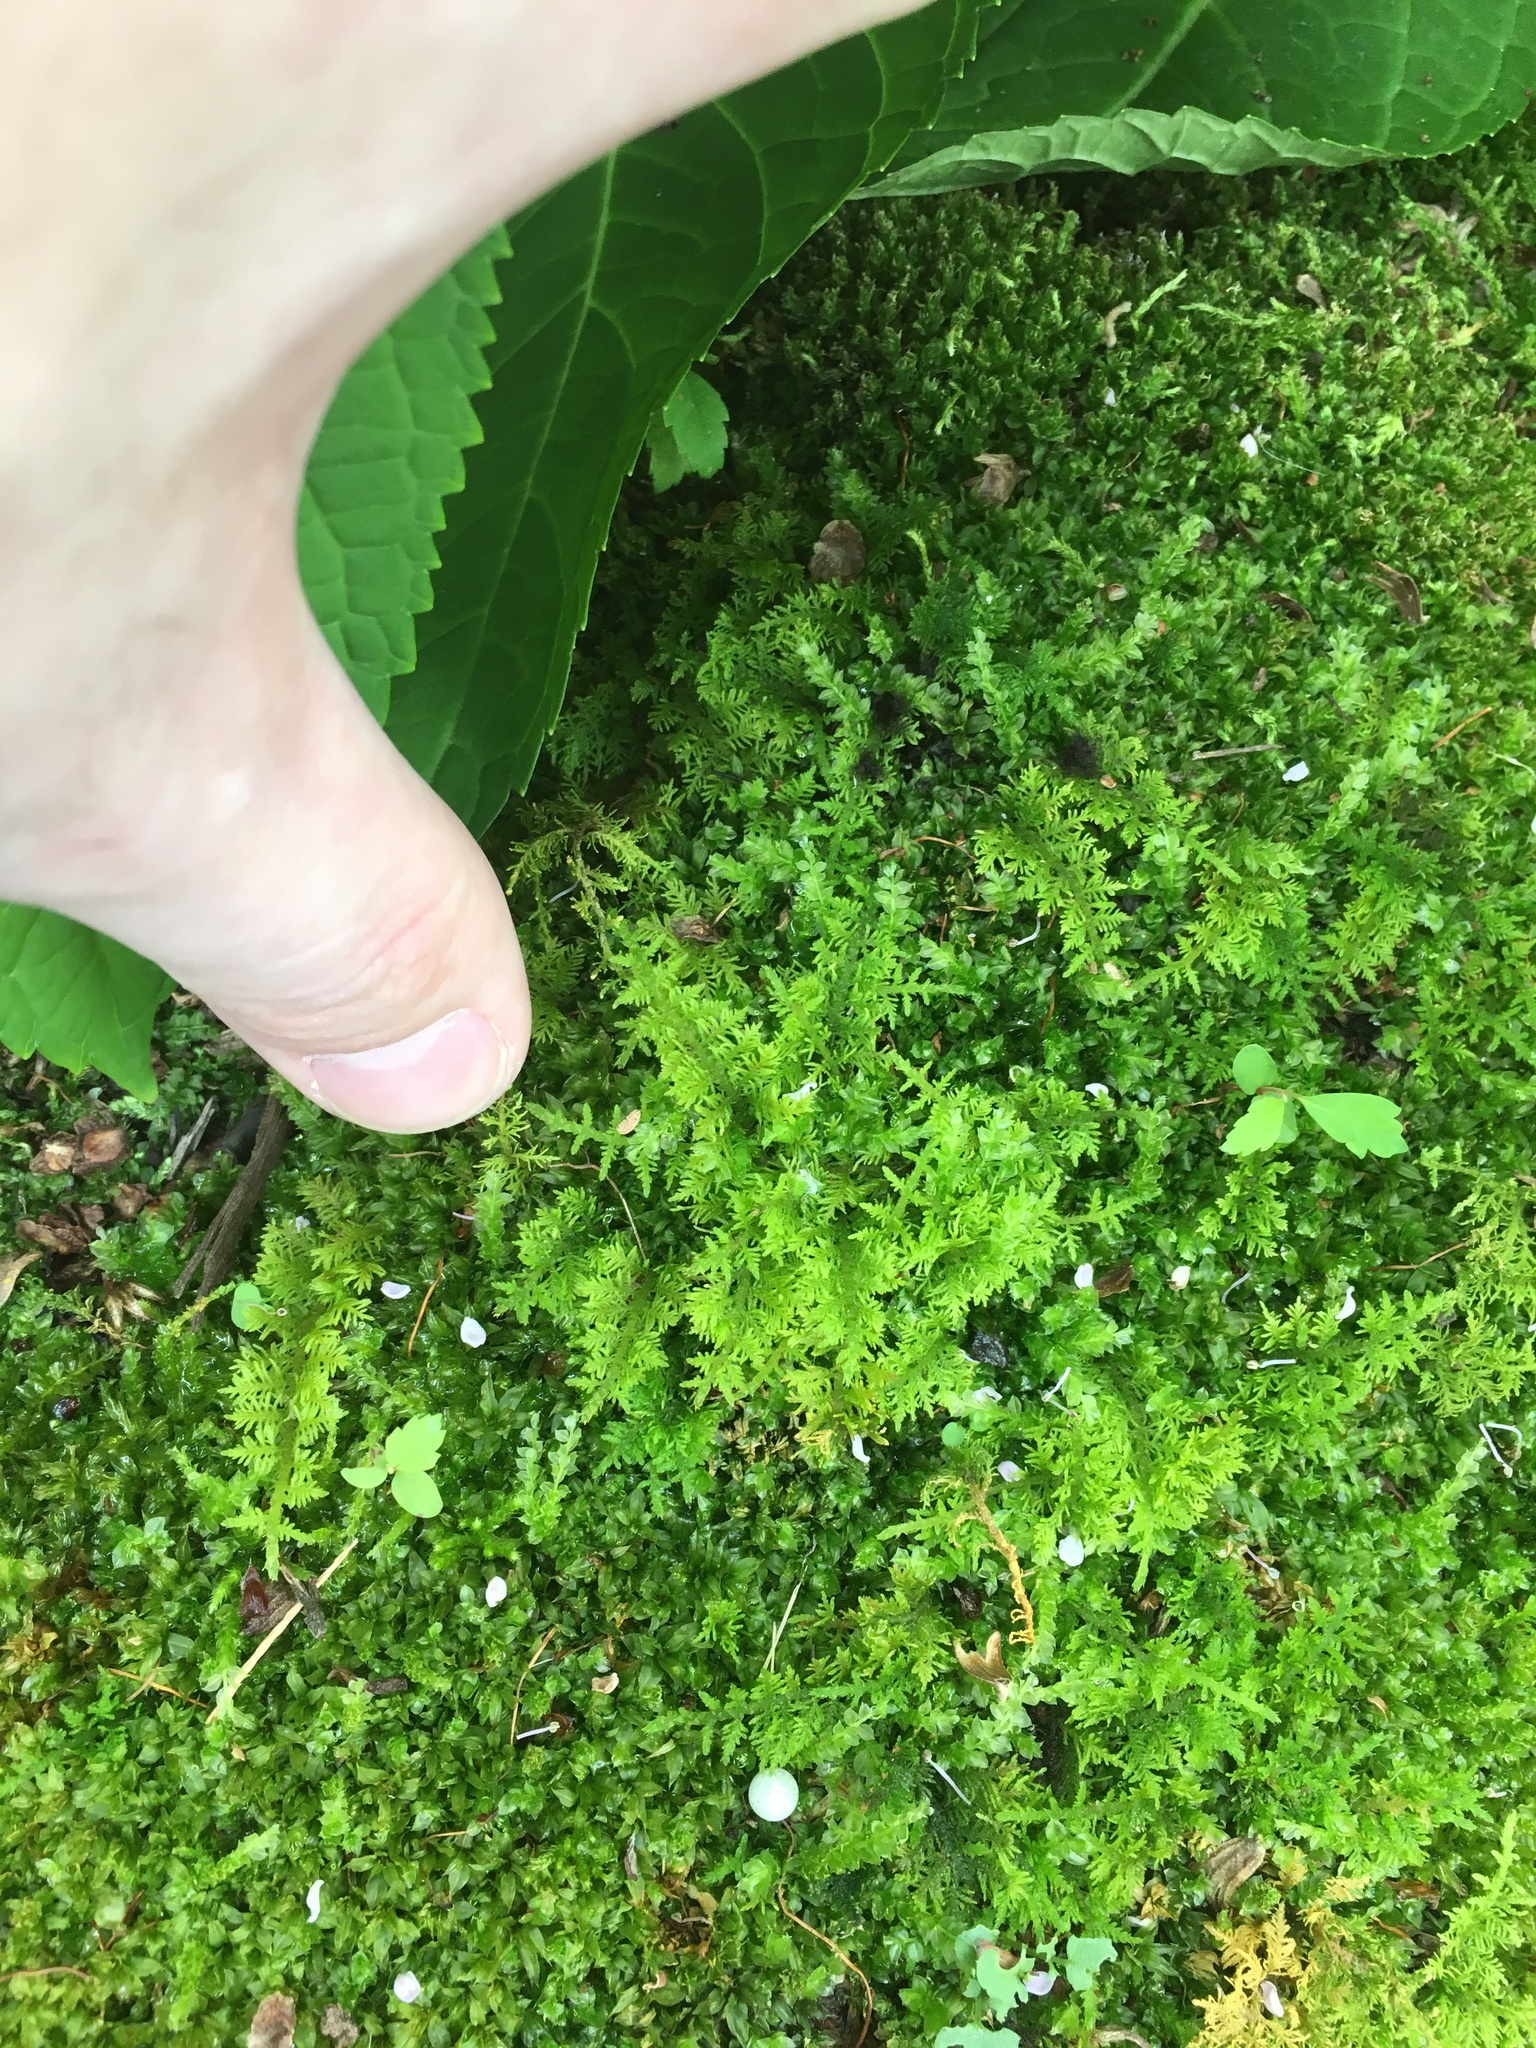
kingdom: Plantae
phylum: Bryophyta
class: Bryopsida
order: Hypnales
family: Thuidiaceae
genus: Thuidium
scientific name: Thuidium delicatulum
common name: Delicate fern moss
